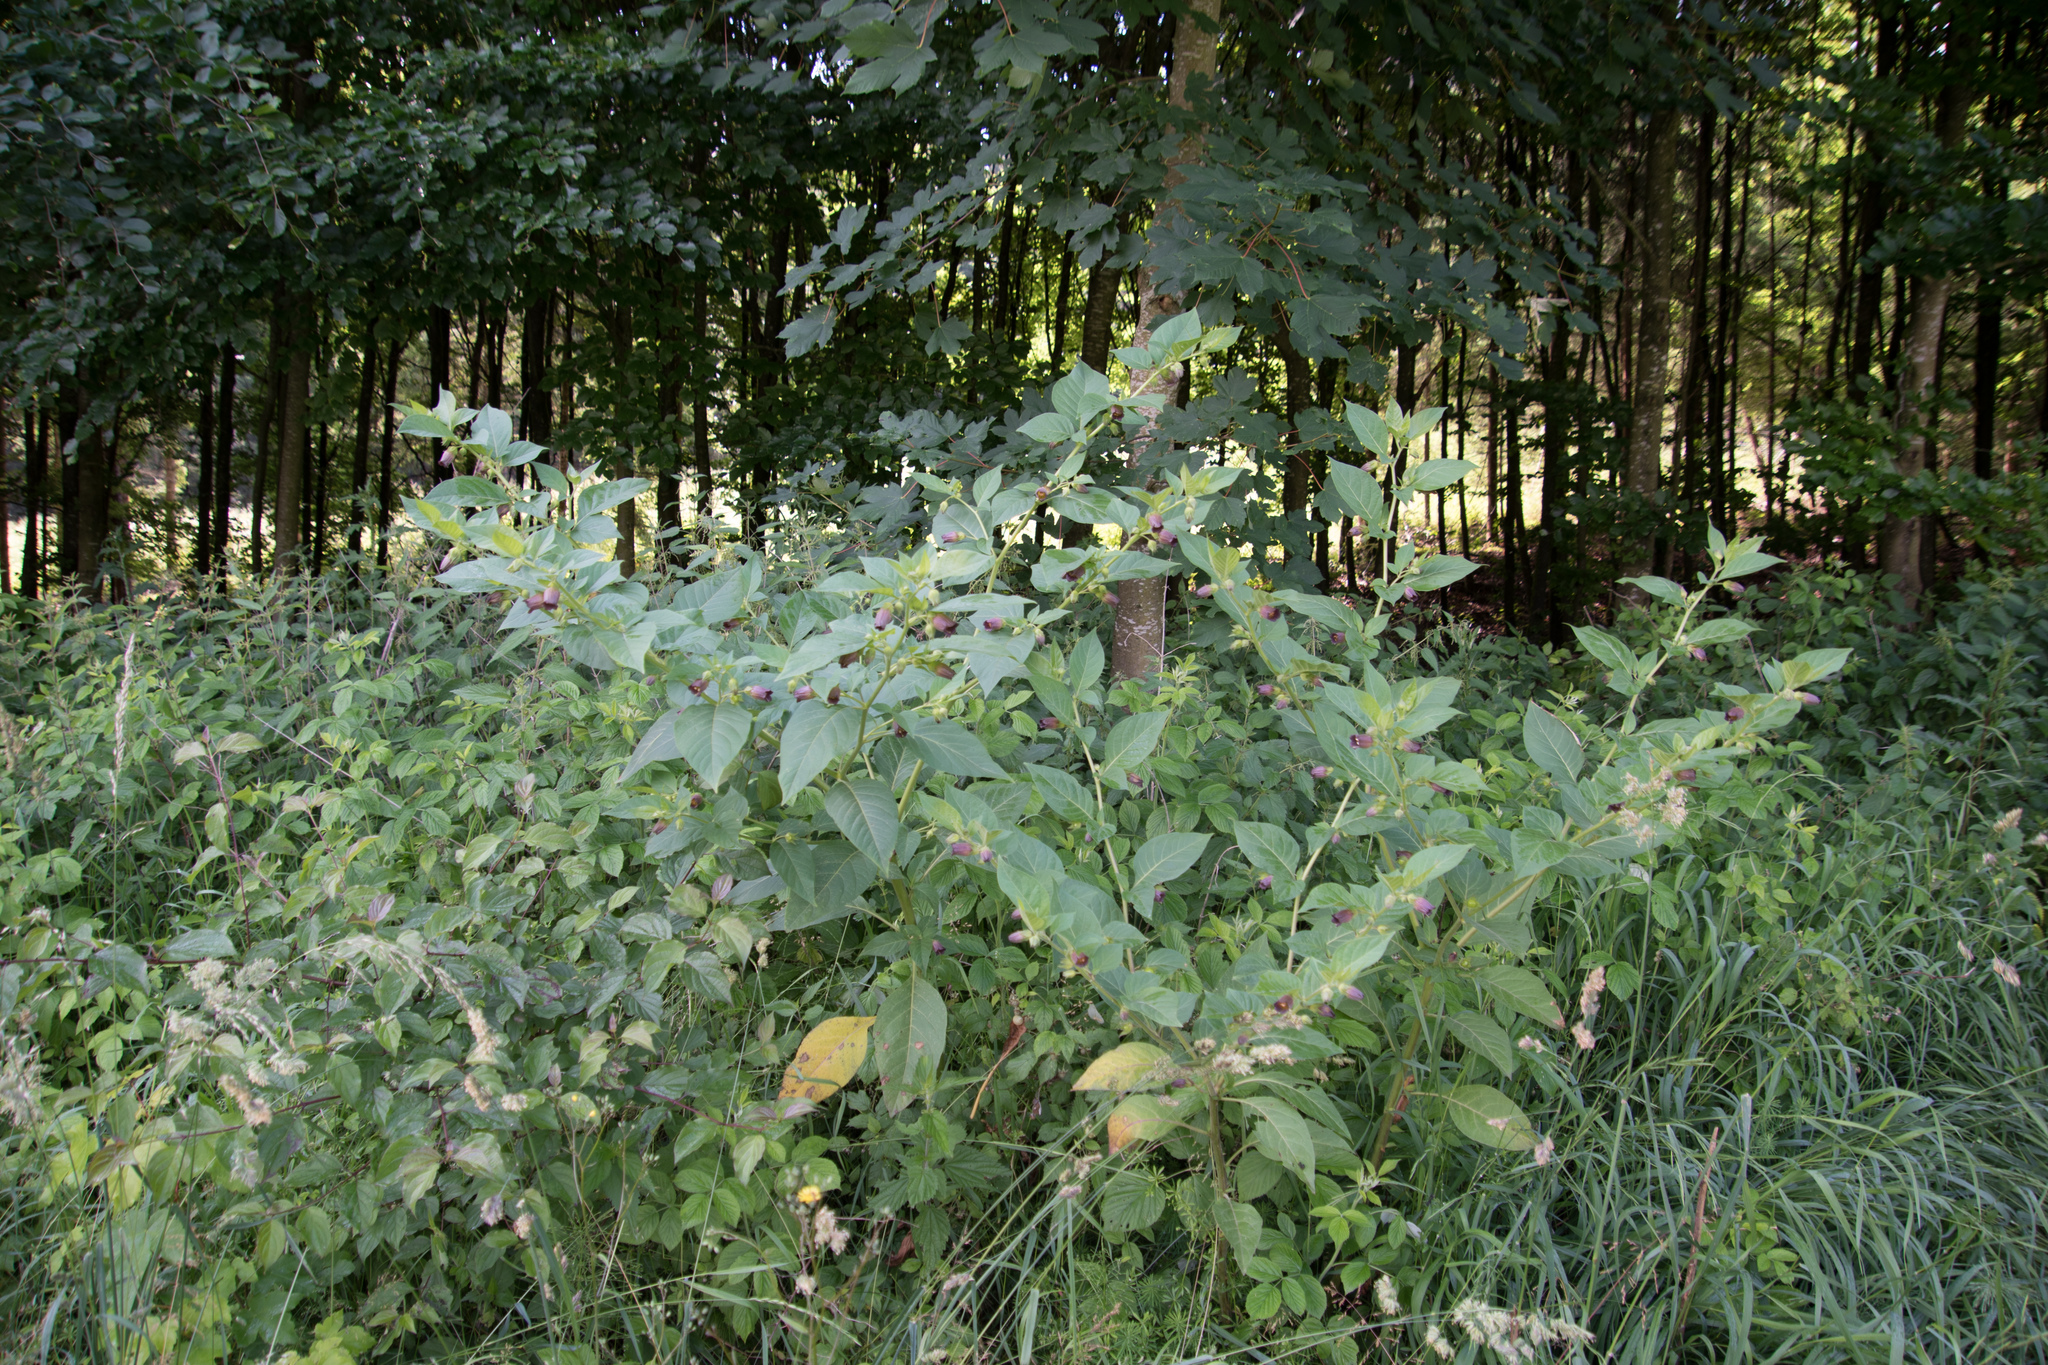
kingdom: Plantae
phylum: Tracheophyta
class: Magnoliopsida
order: Solanales
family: Solanaceae
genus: Atropa
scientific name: Atropa belladonna
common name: Deadly nightshade
